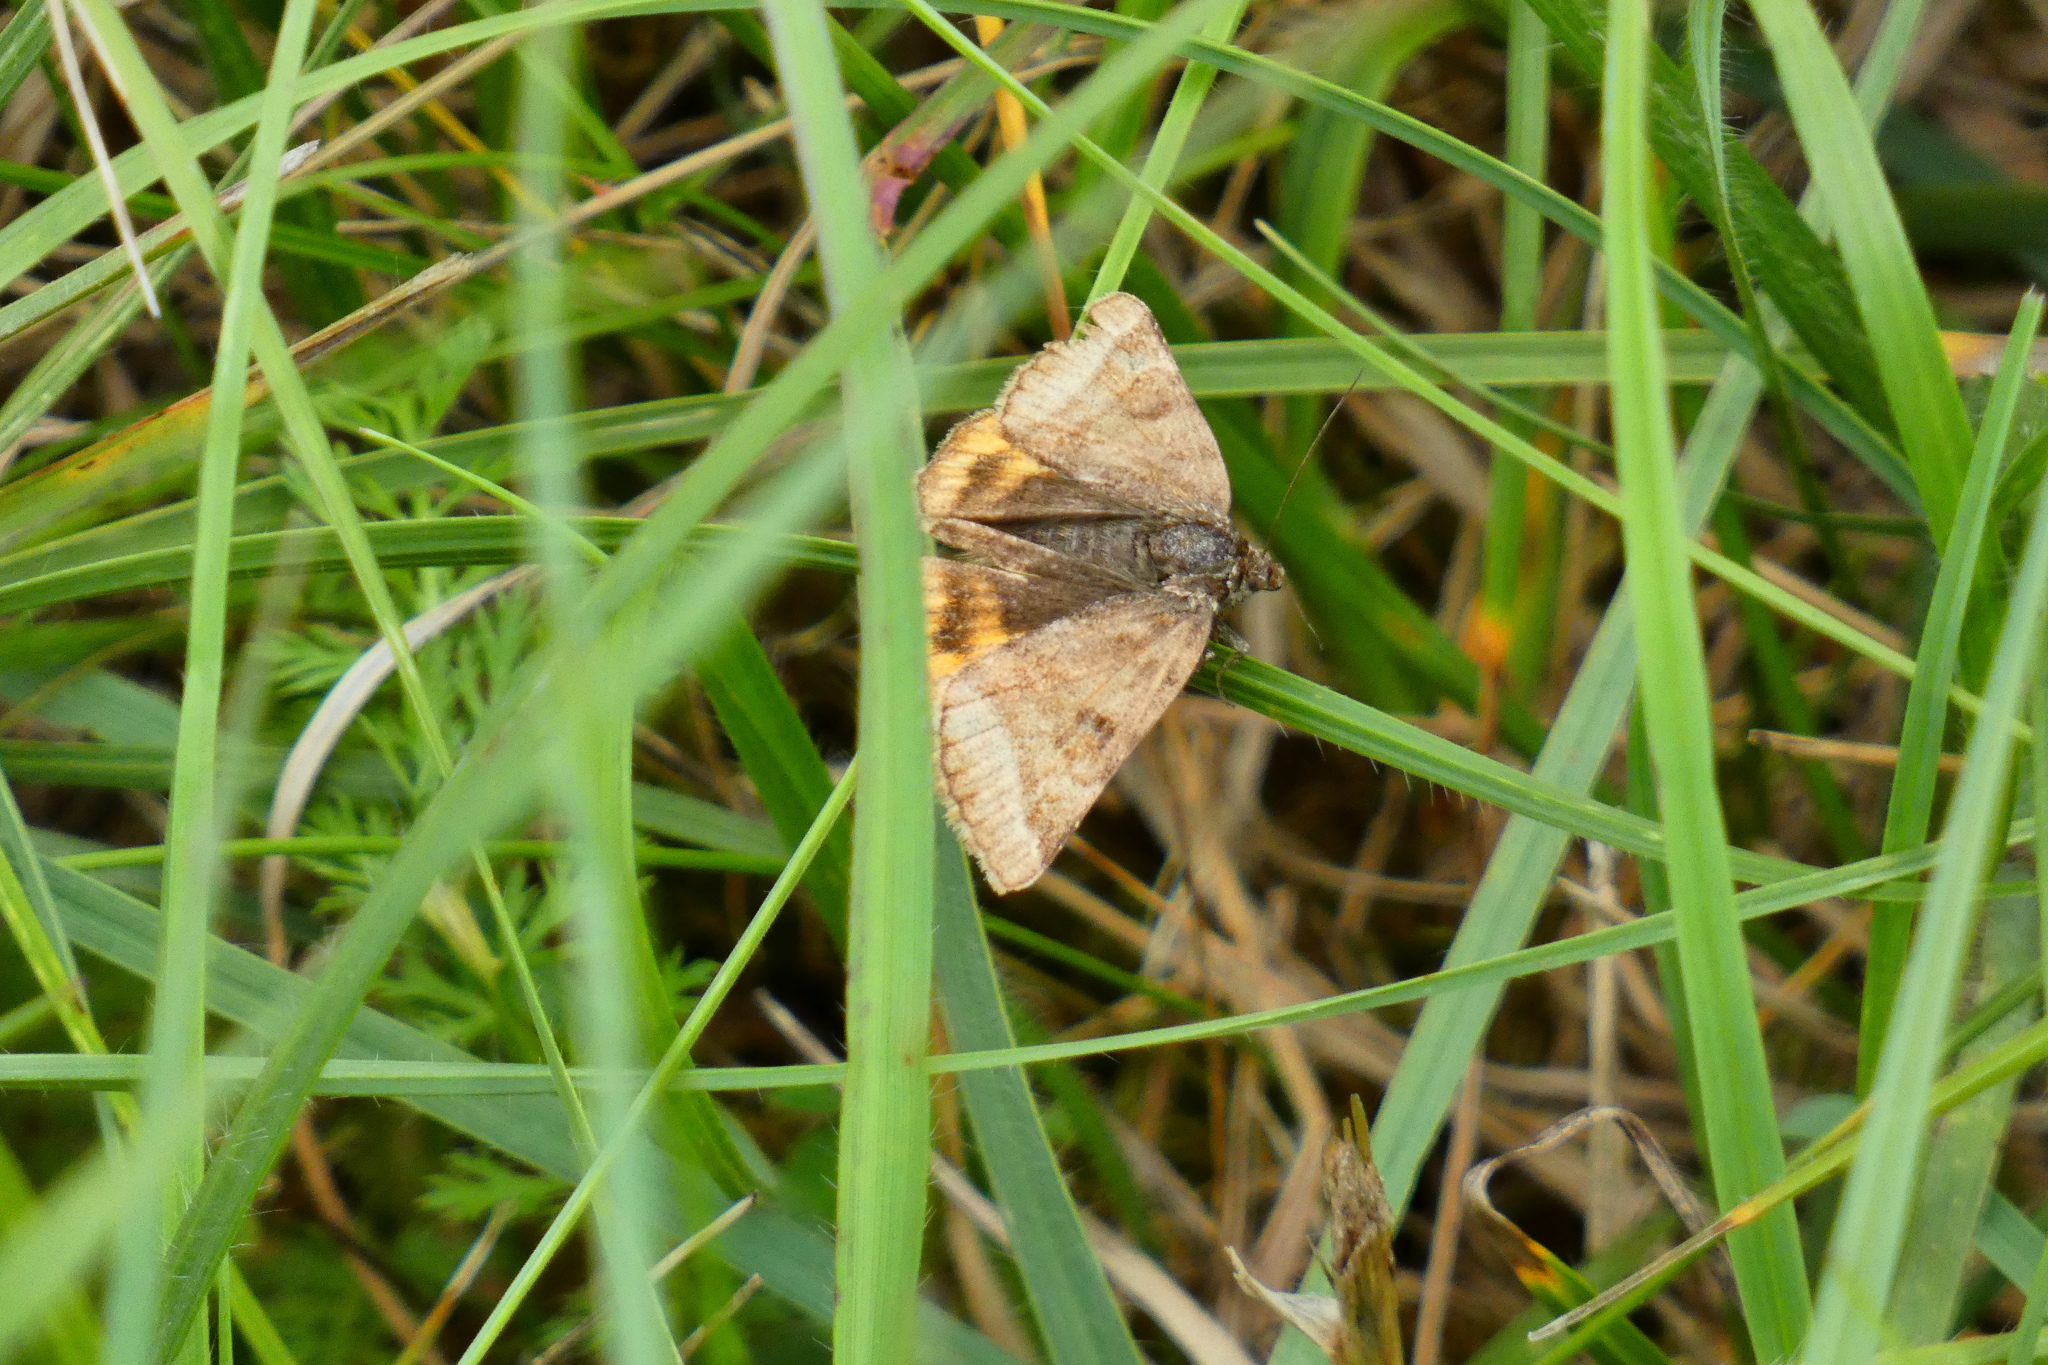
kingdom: Animalia
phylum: Arthropoda
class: Insecta
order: Lepidoptera
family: Erebidae
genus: Euclidia
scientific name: Euclidia glyphica
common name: Burnet companion
